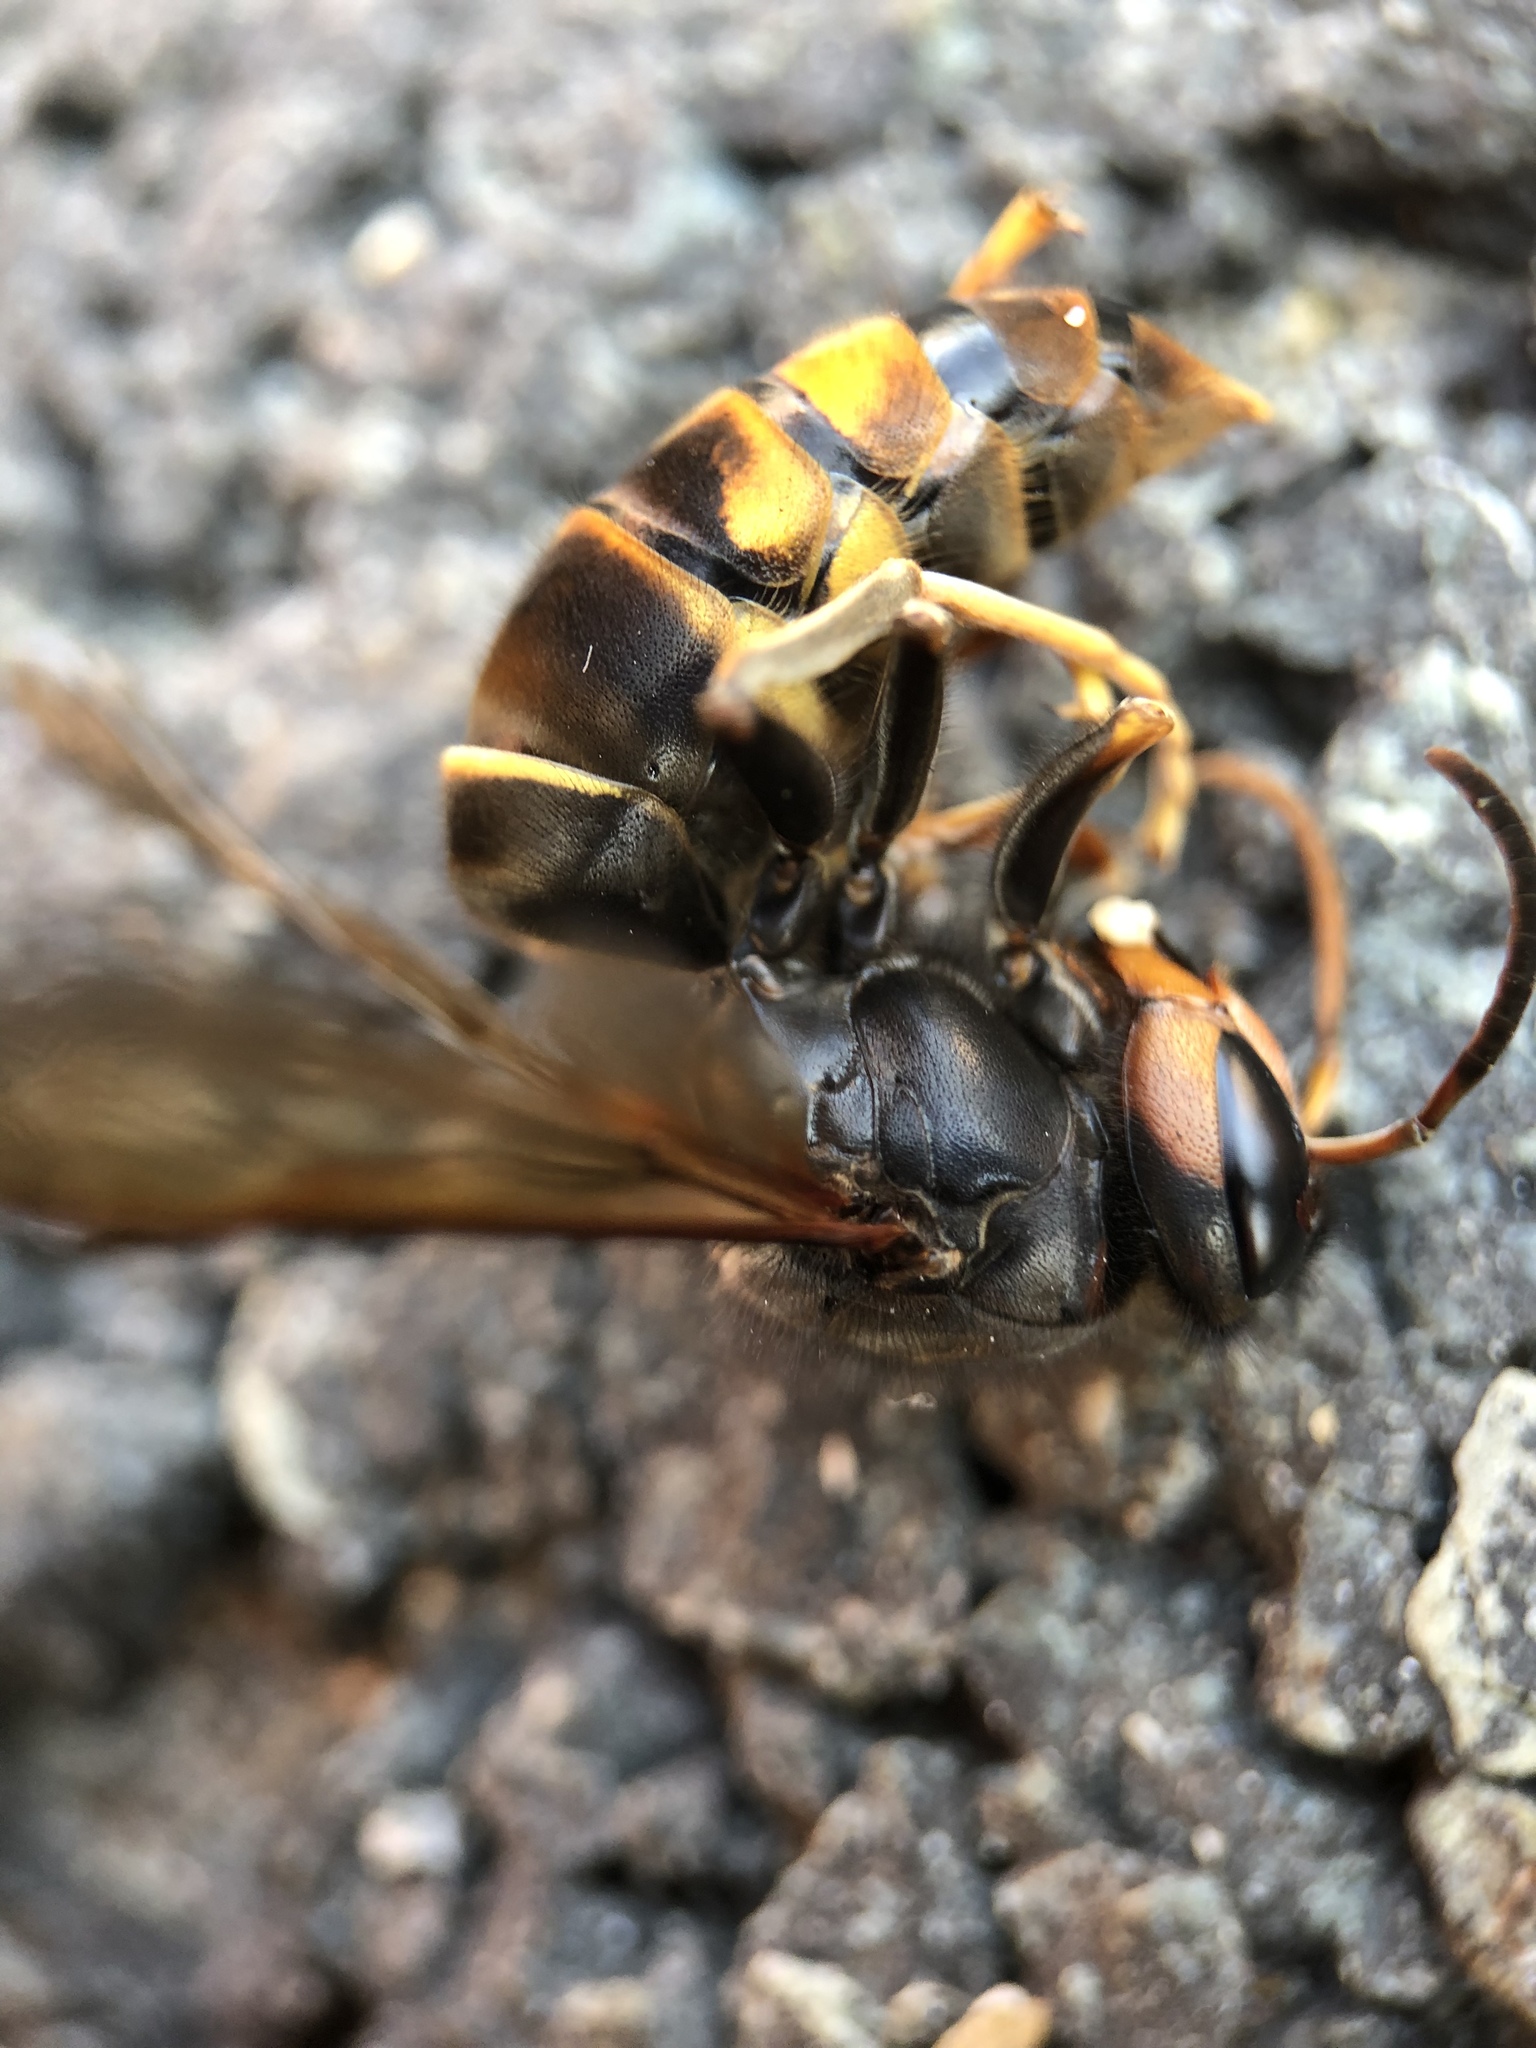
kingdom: Animalia
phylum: Arthropoda
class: Insecta
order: Hymenoptera
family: Vespidae
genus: Vespa
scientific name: Vespa velutina
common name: Asian hornet
